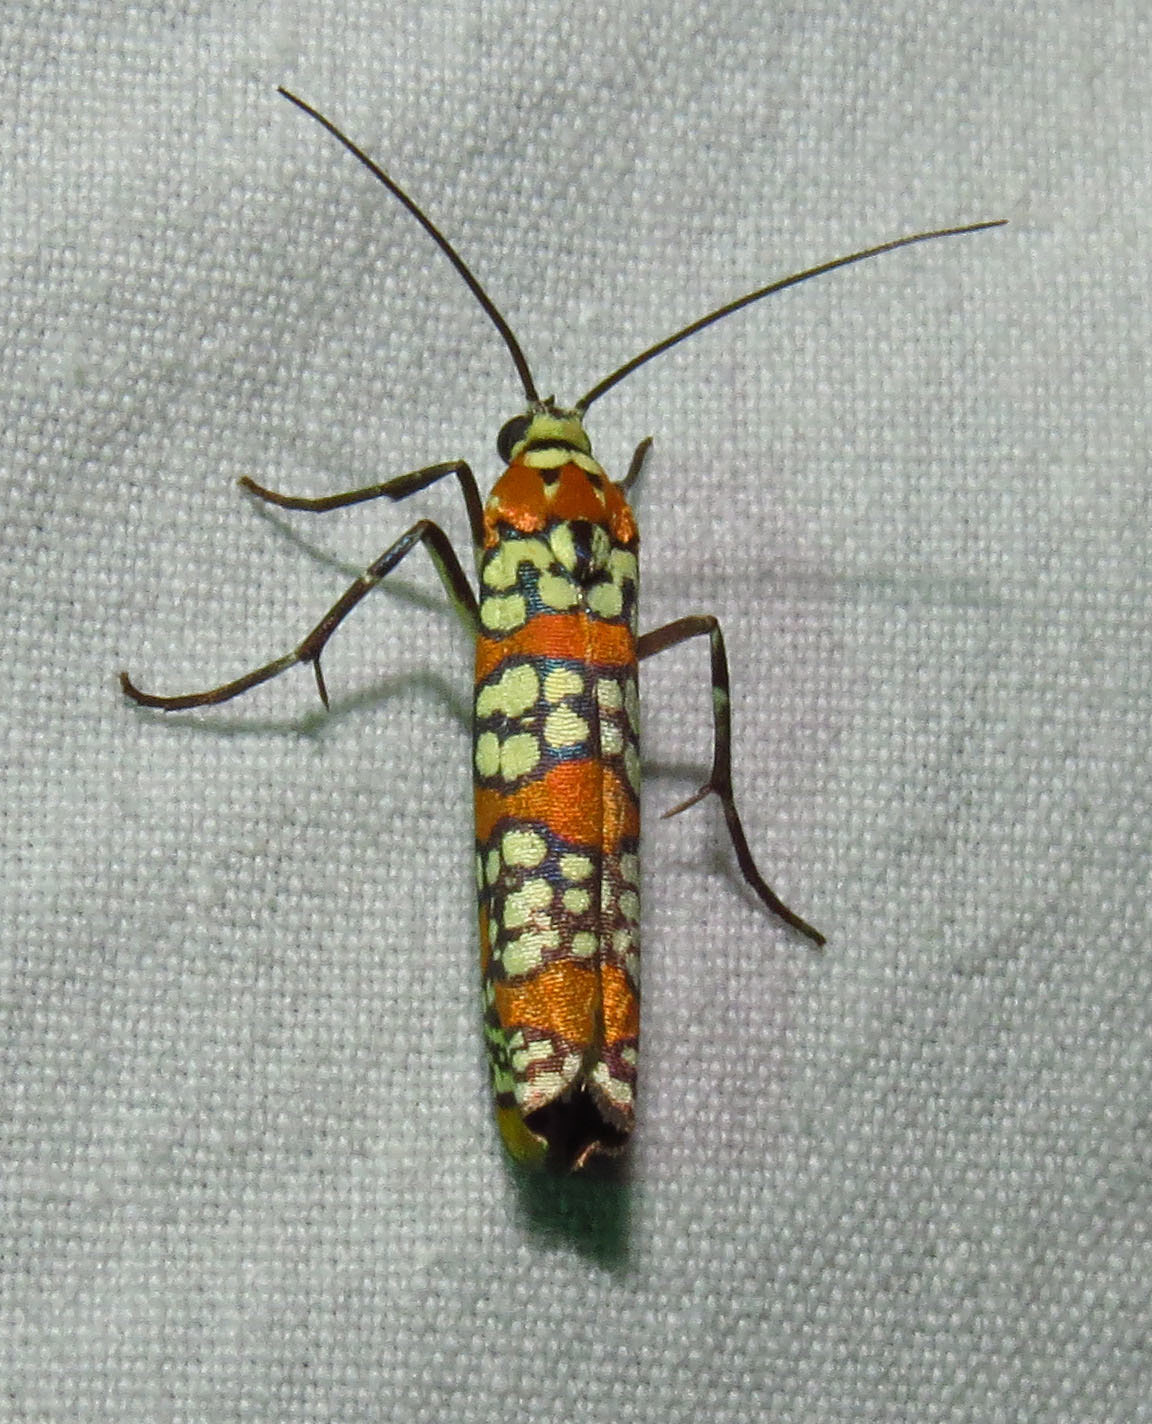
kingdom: Animalia
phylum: Arthropoda
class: Insecta
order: Lepidoptera
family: Attevidae
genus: Atteva
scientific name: Atteva punctella
